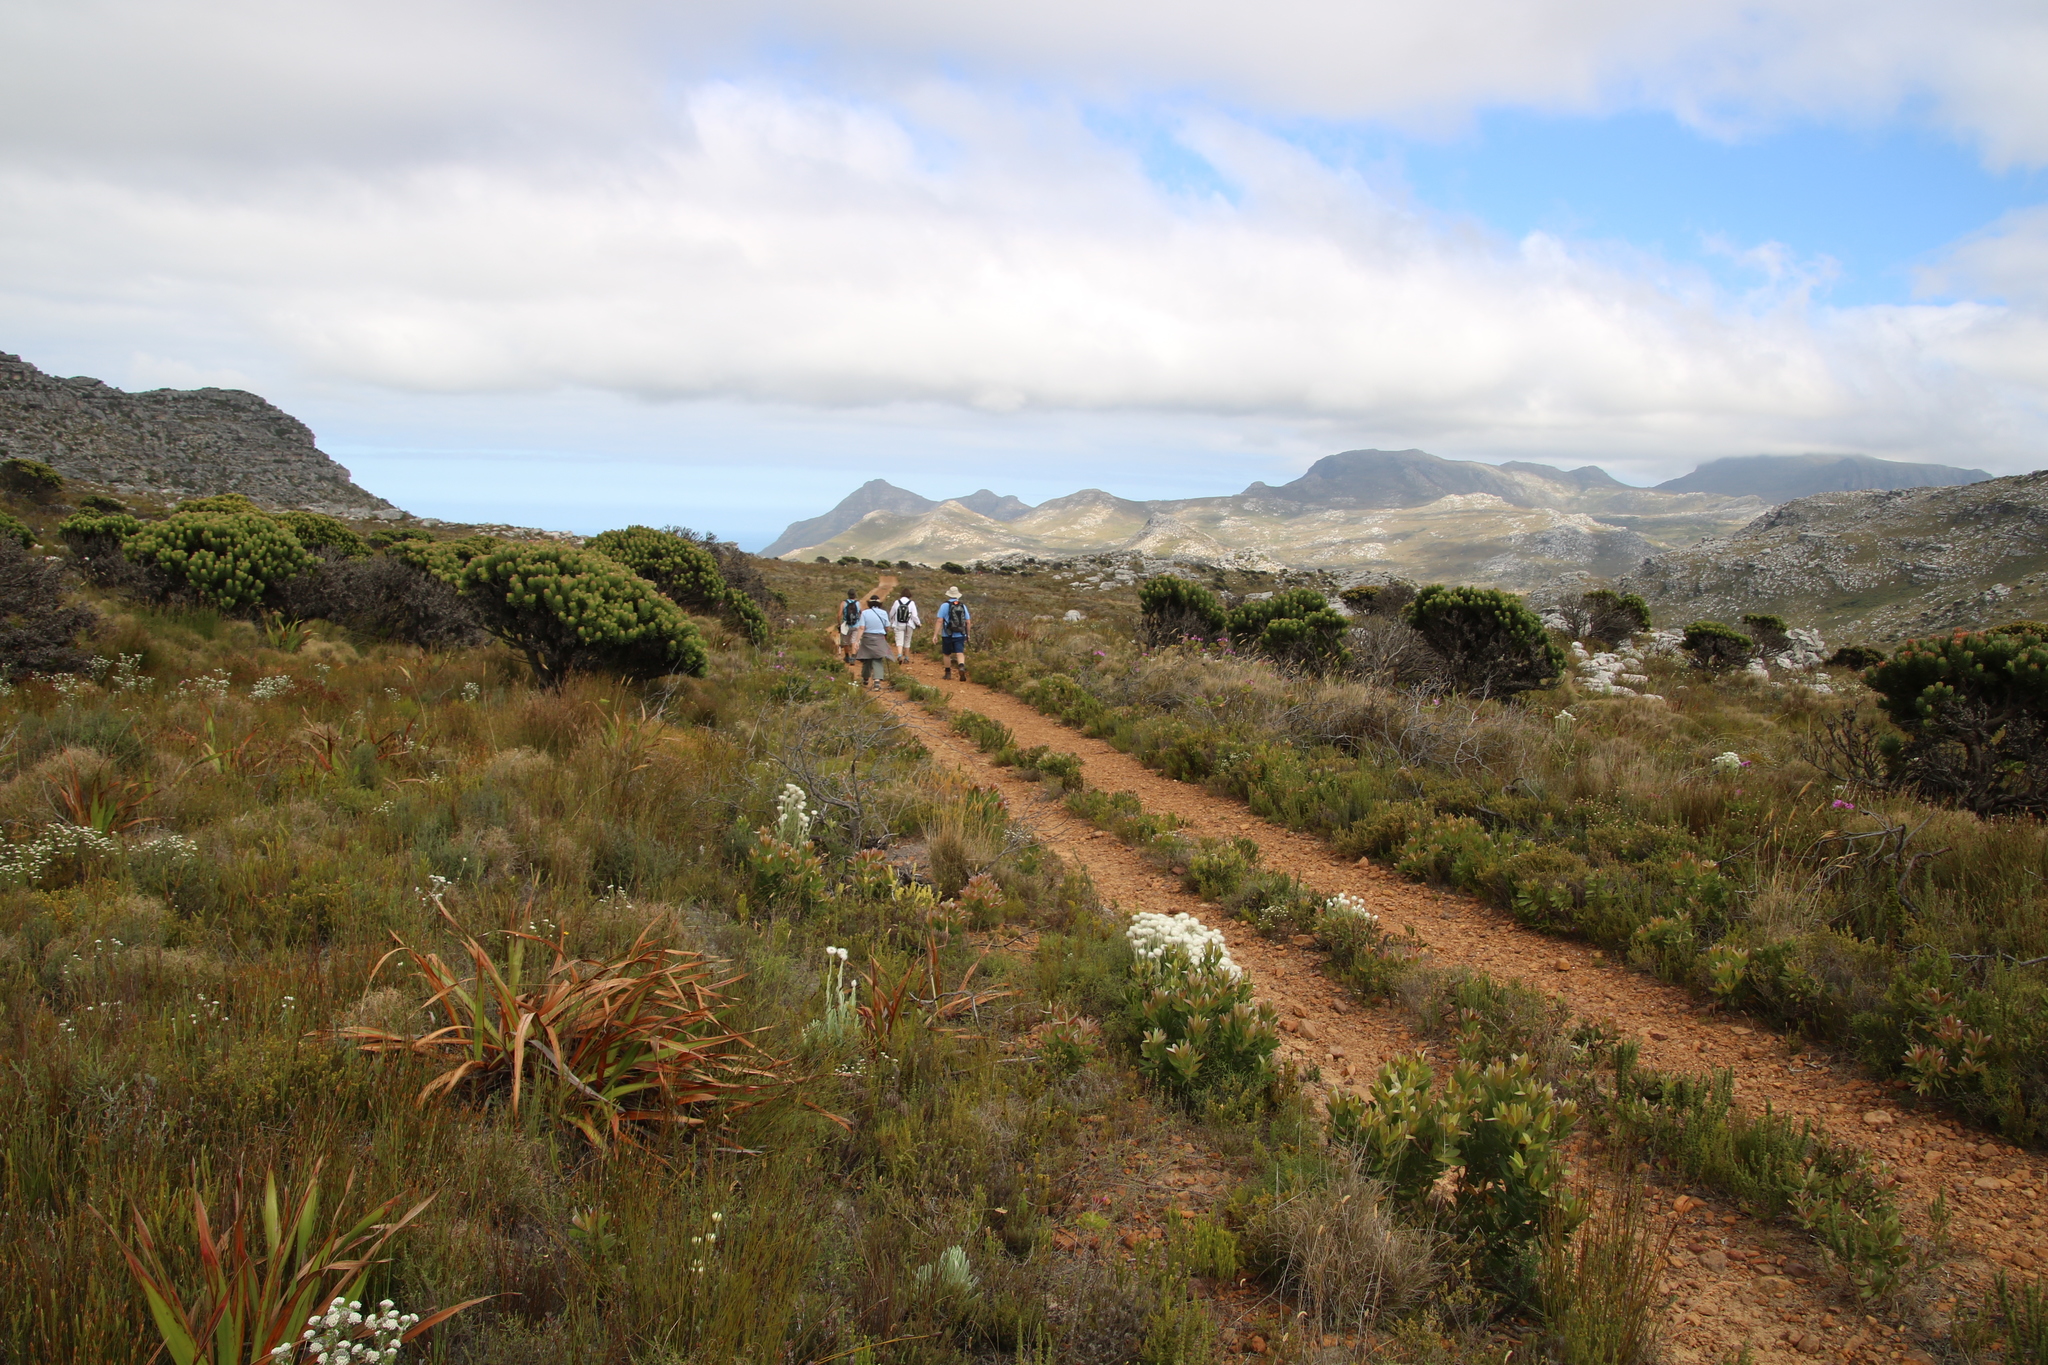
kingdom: Plantae
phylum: Tracheophyta
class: Magnoliopsida
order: Proteales
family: Proteaceae
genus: Mimetes
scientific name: Mimetes fimbriifolius
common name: Fringed bottlebrush
